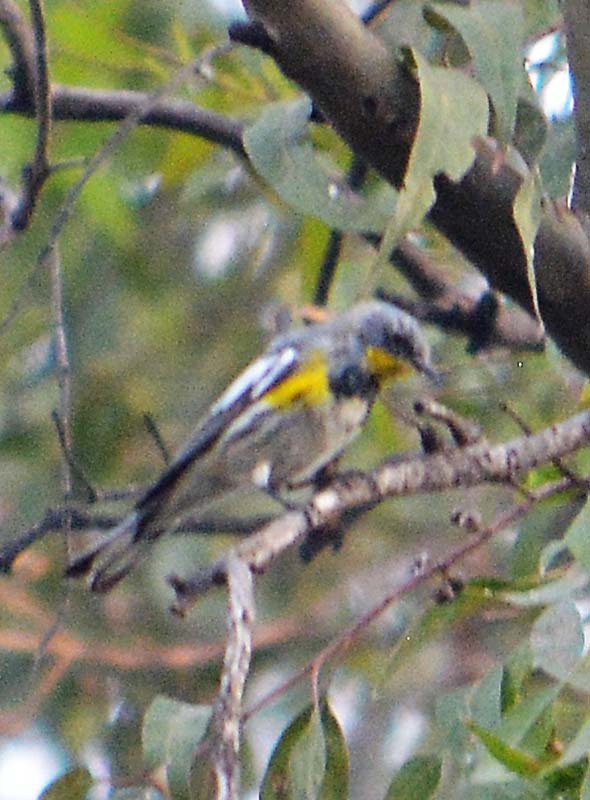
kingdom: Animalia
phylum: Chordata
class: Aves
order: Passeriformes
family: Parulidae
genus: Setophaga
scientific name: Setophaga auduboni
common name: Audubon's warbler
